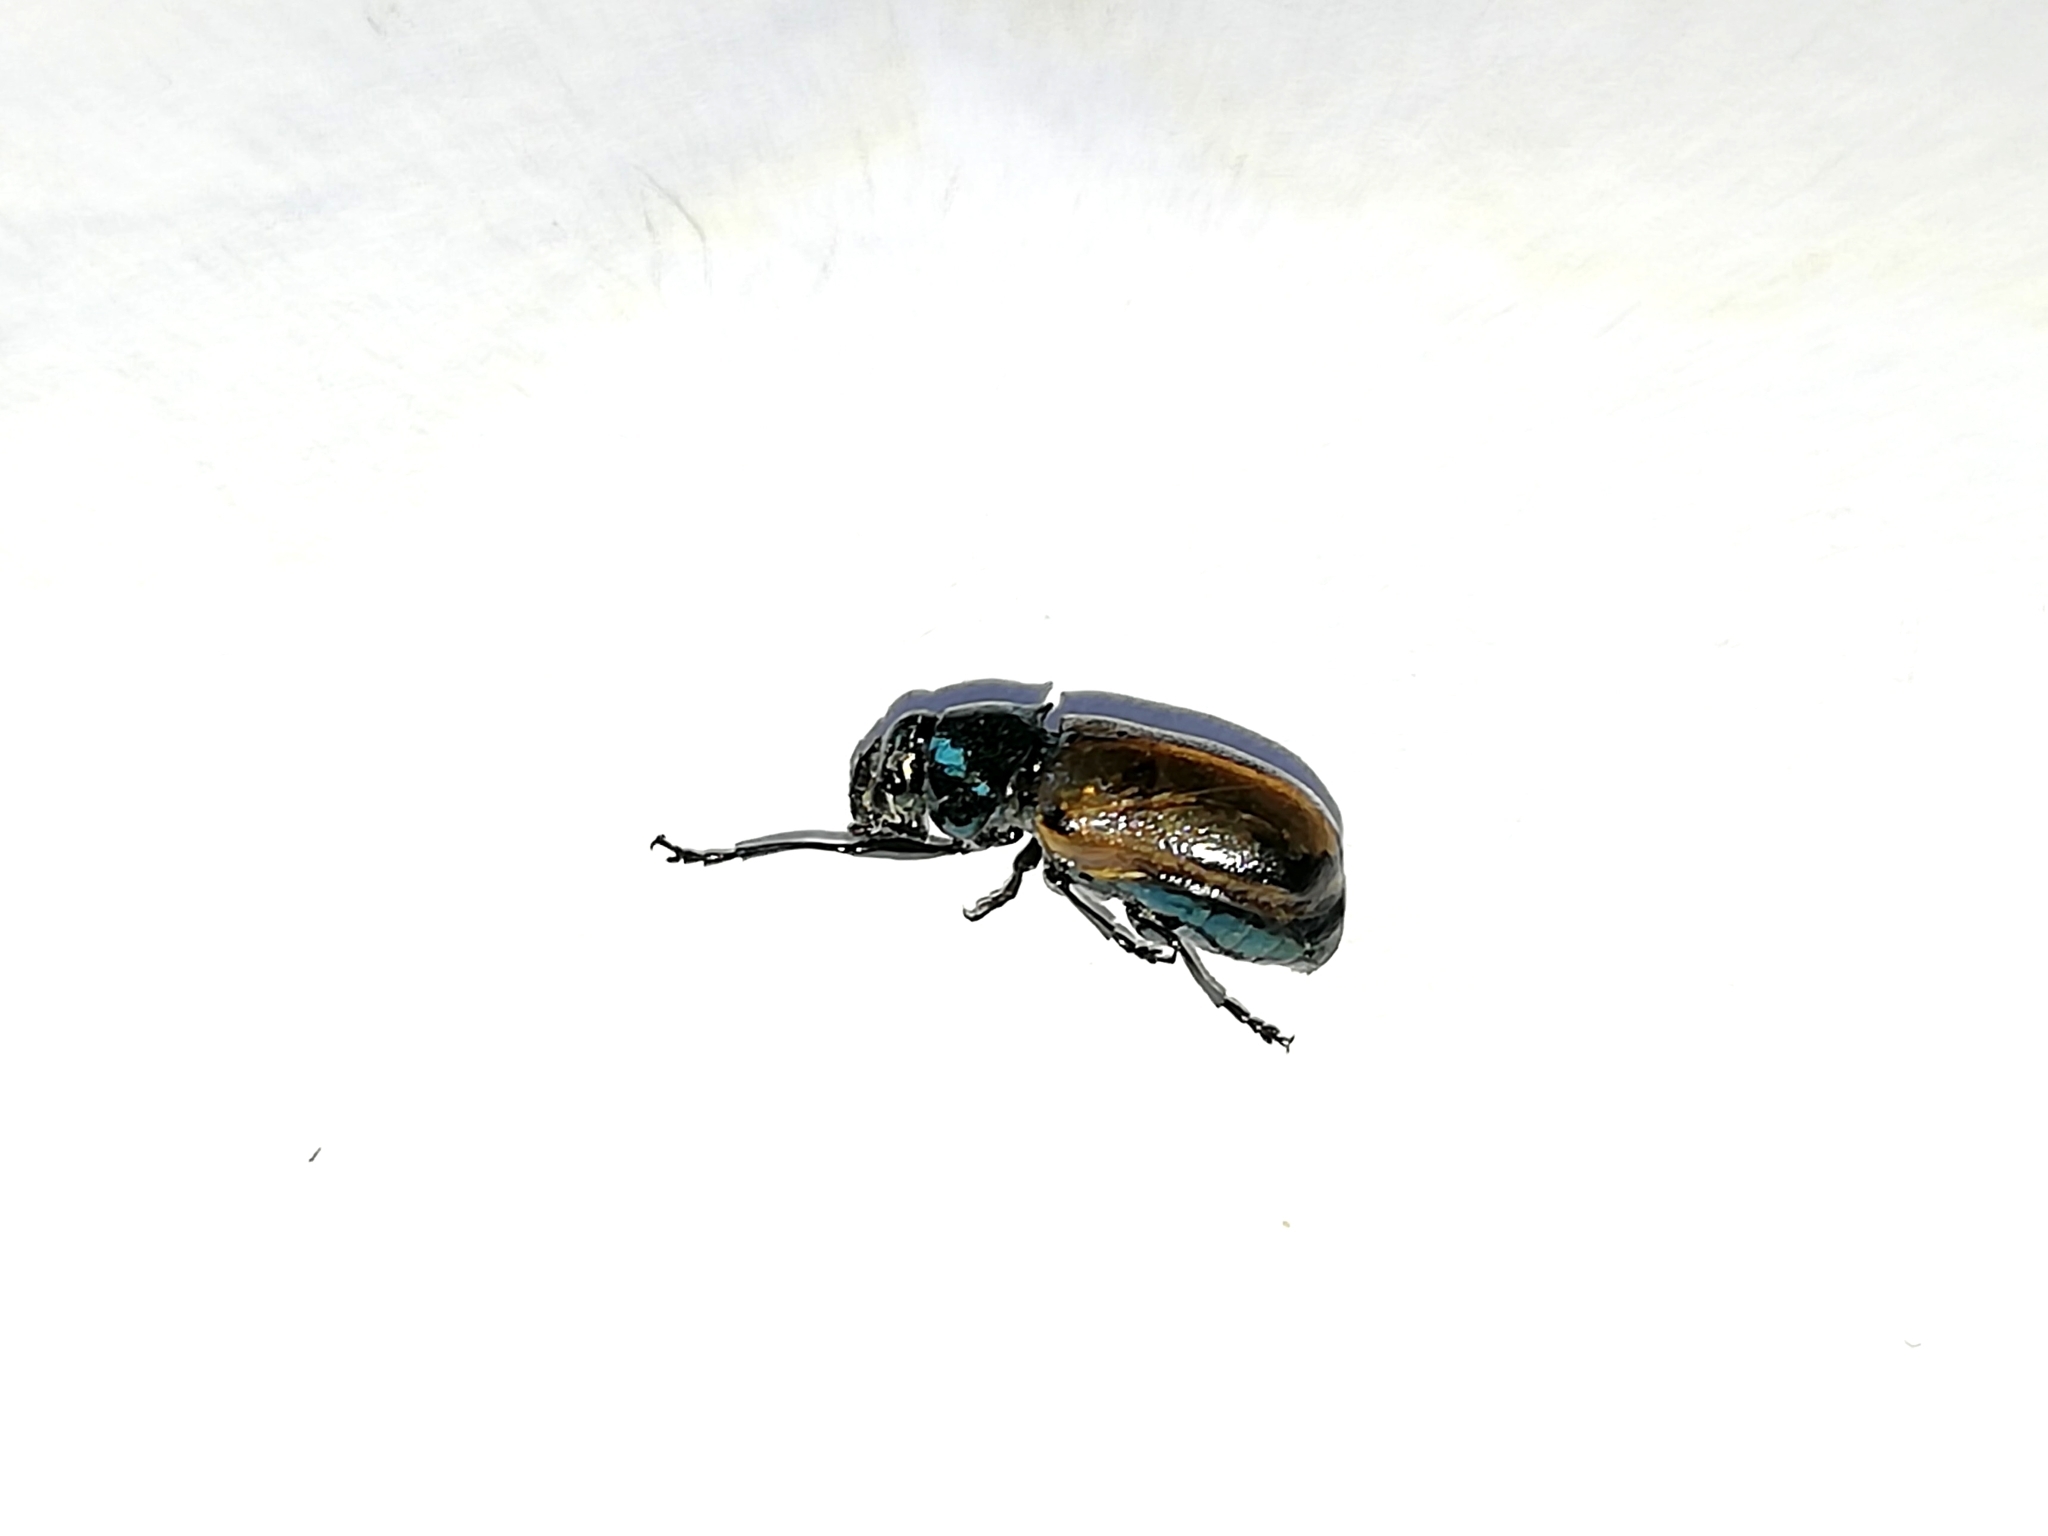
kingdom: Animalia
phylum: Arthropoda
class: Insecta
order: Coleoptera
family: Chrysomelidae
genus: Labidostomis
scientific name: Labidostomis longimana
